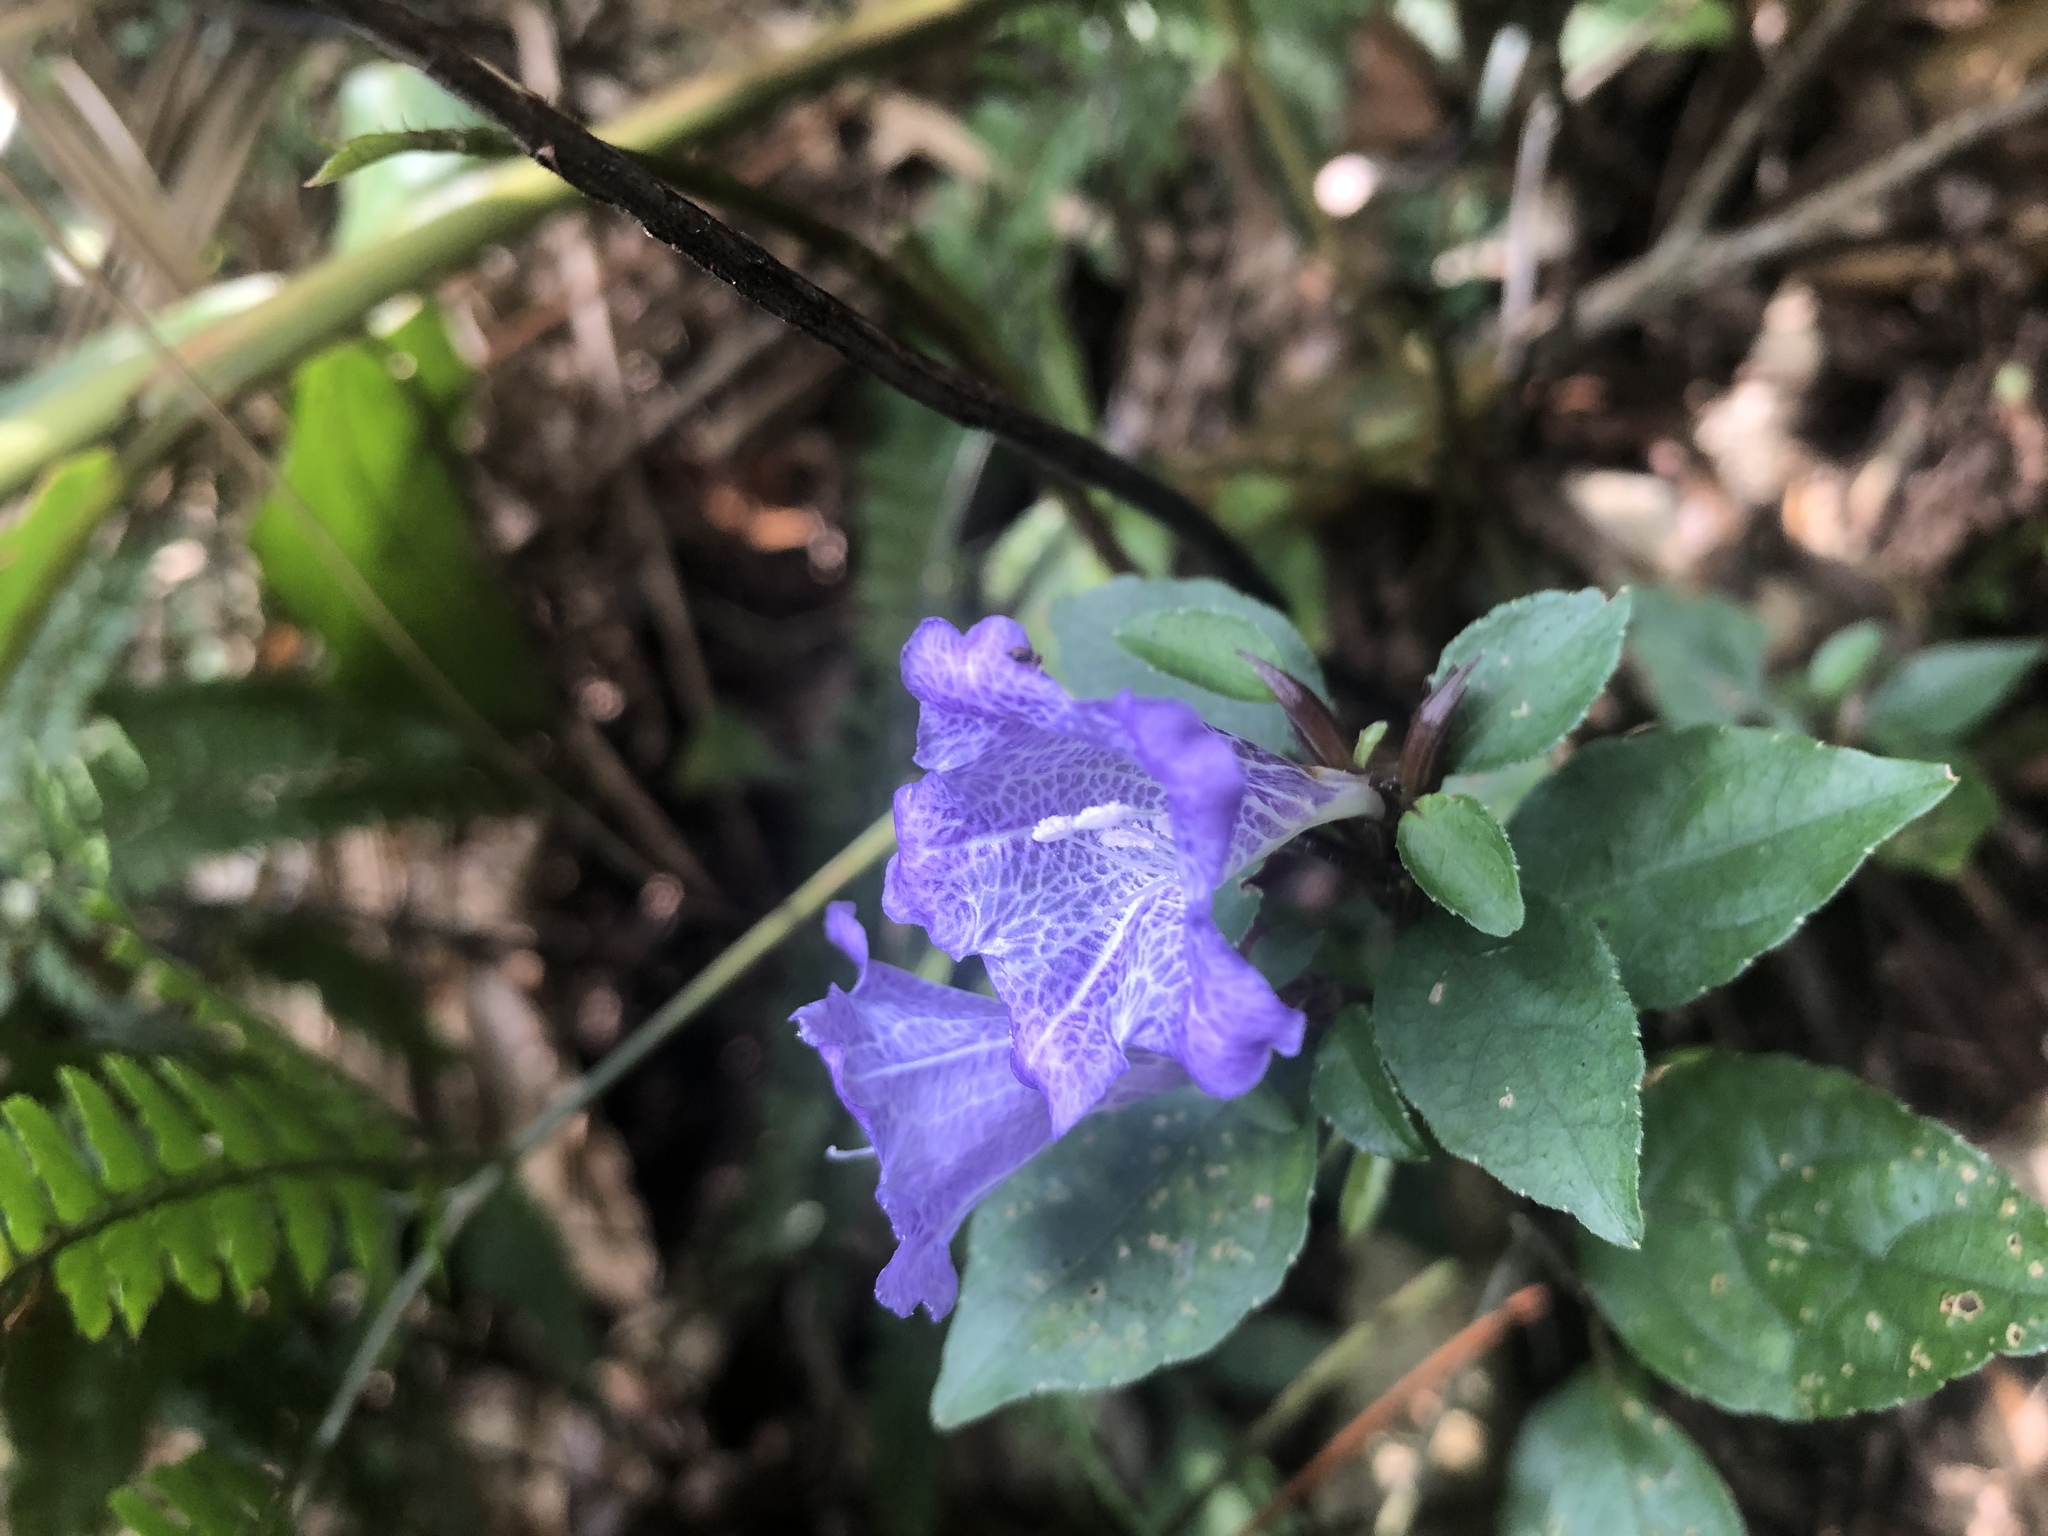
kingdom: Plantae
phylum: Tracheophyta
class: Magnoliopsida
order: Lamiales
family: Acanthaceae
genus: Strobilanthes
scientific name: Strobilanthes rankanensis
